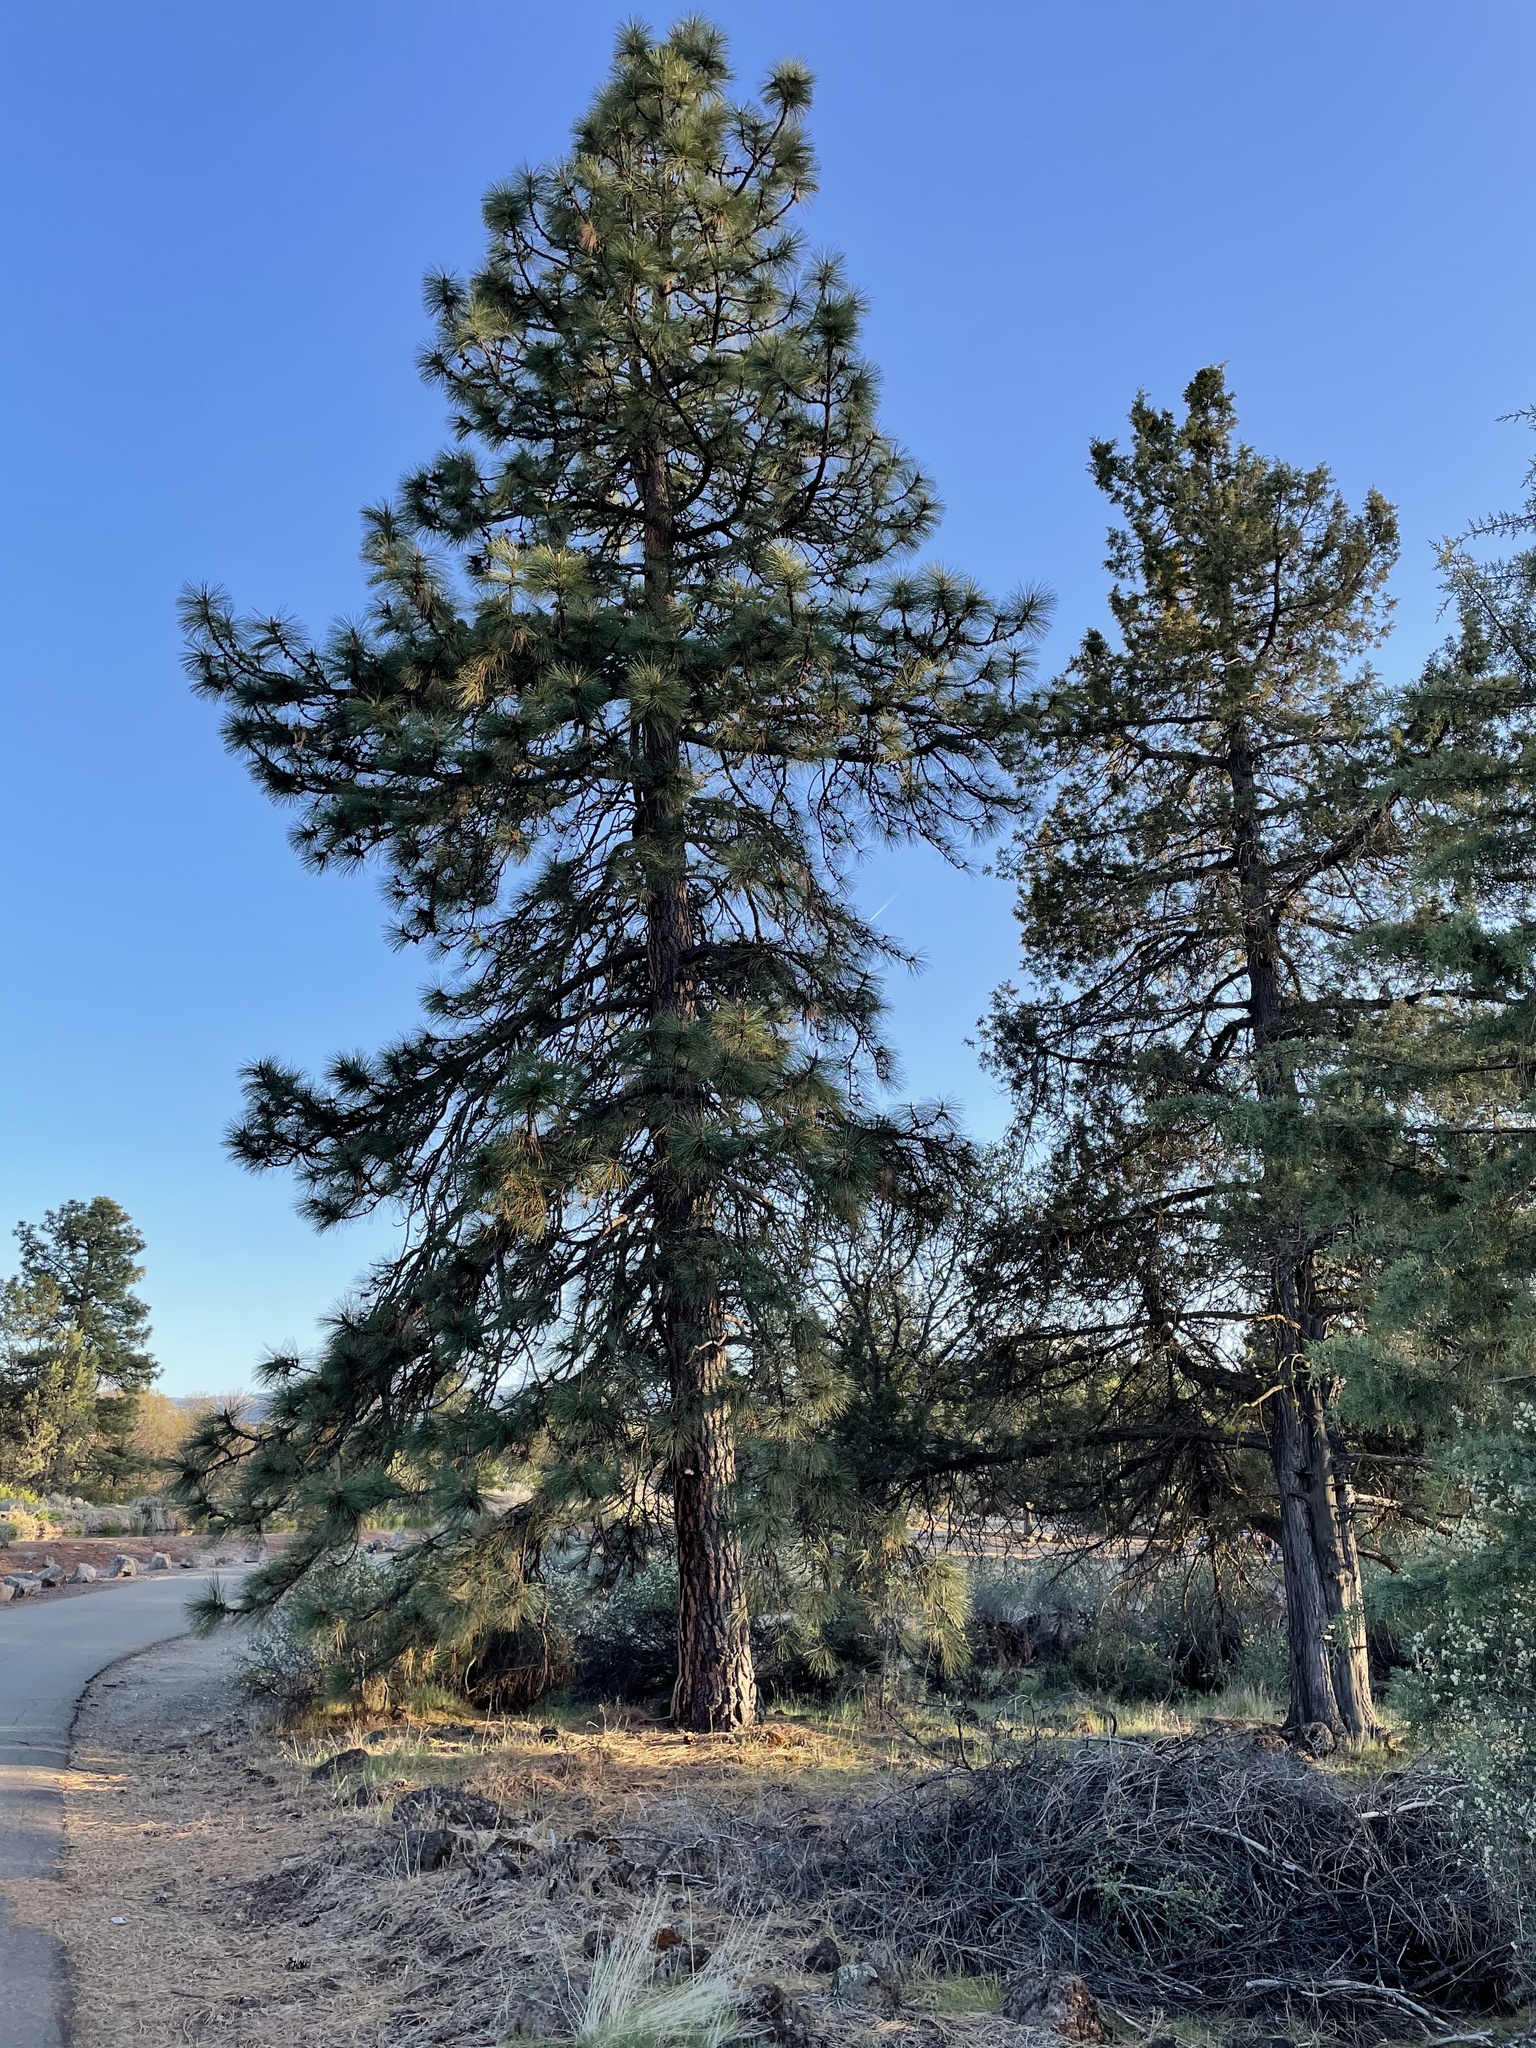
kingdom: Plantae
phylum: Tracheophyta
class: Pinopsida
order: Pinales
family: Pinaceae
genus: Pinus
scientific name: Pinus ponderosa
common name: Western yellow-pine
